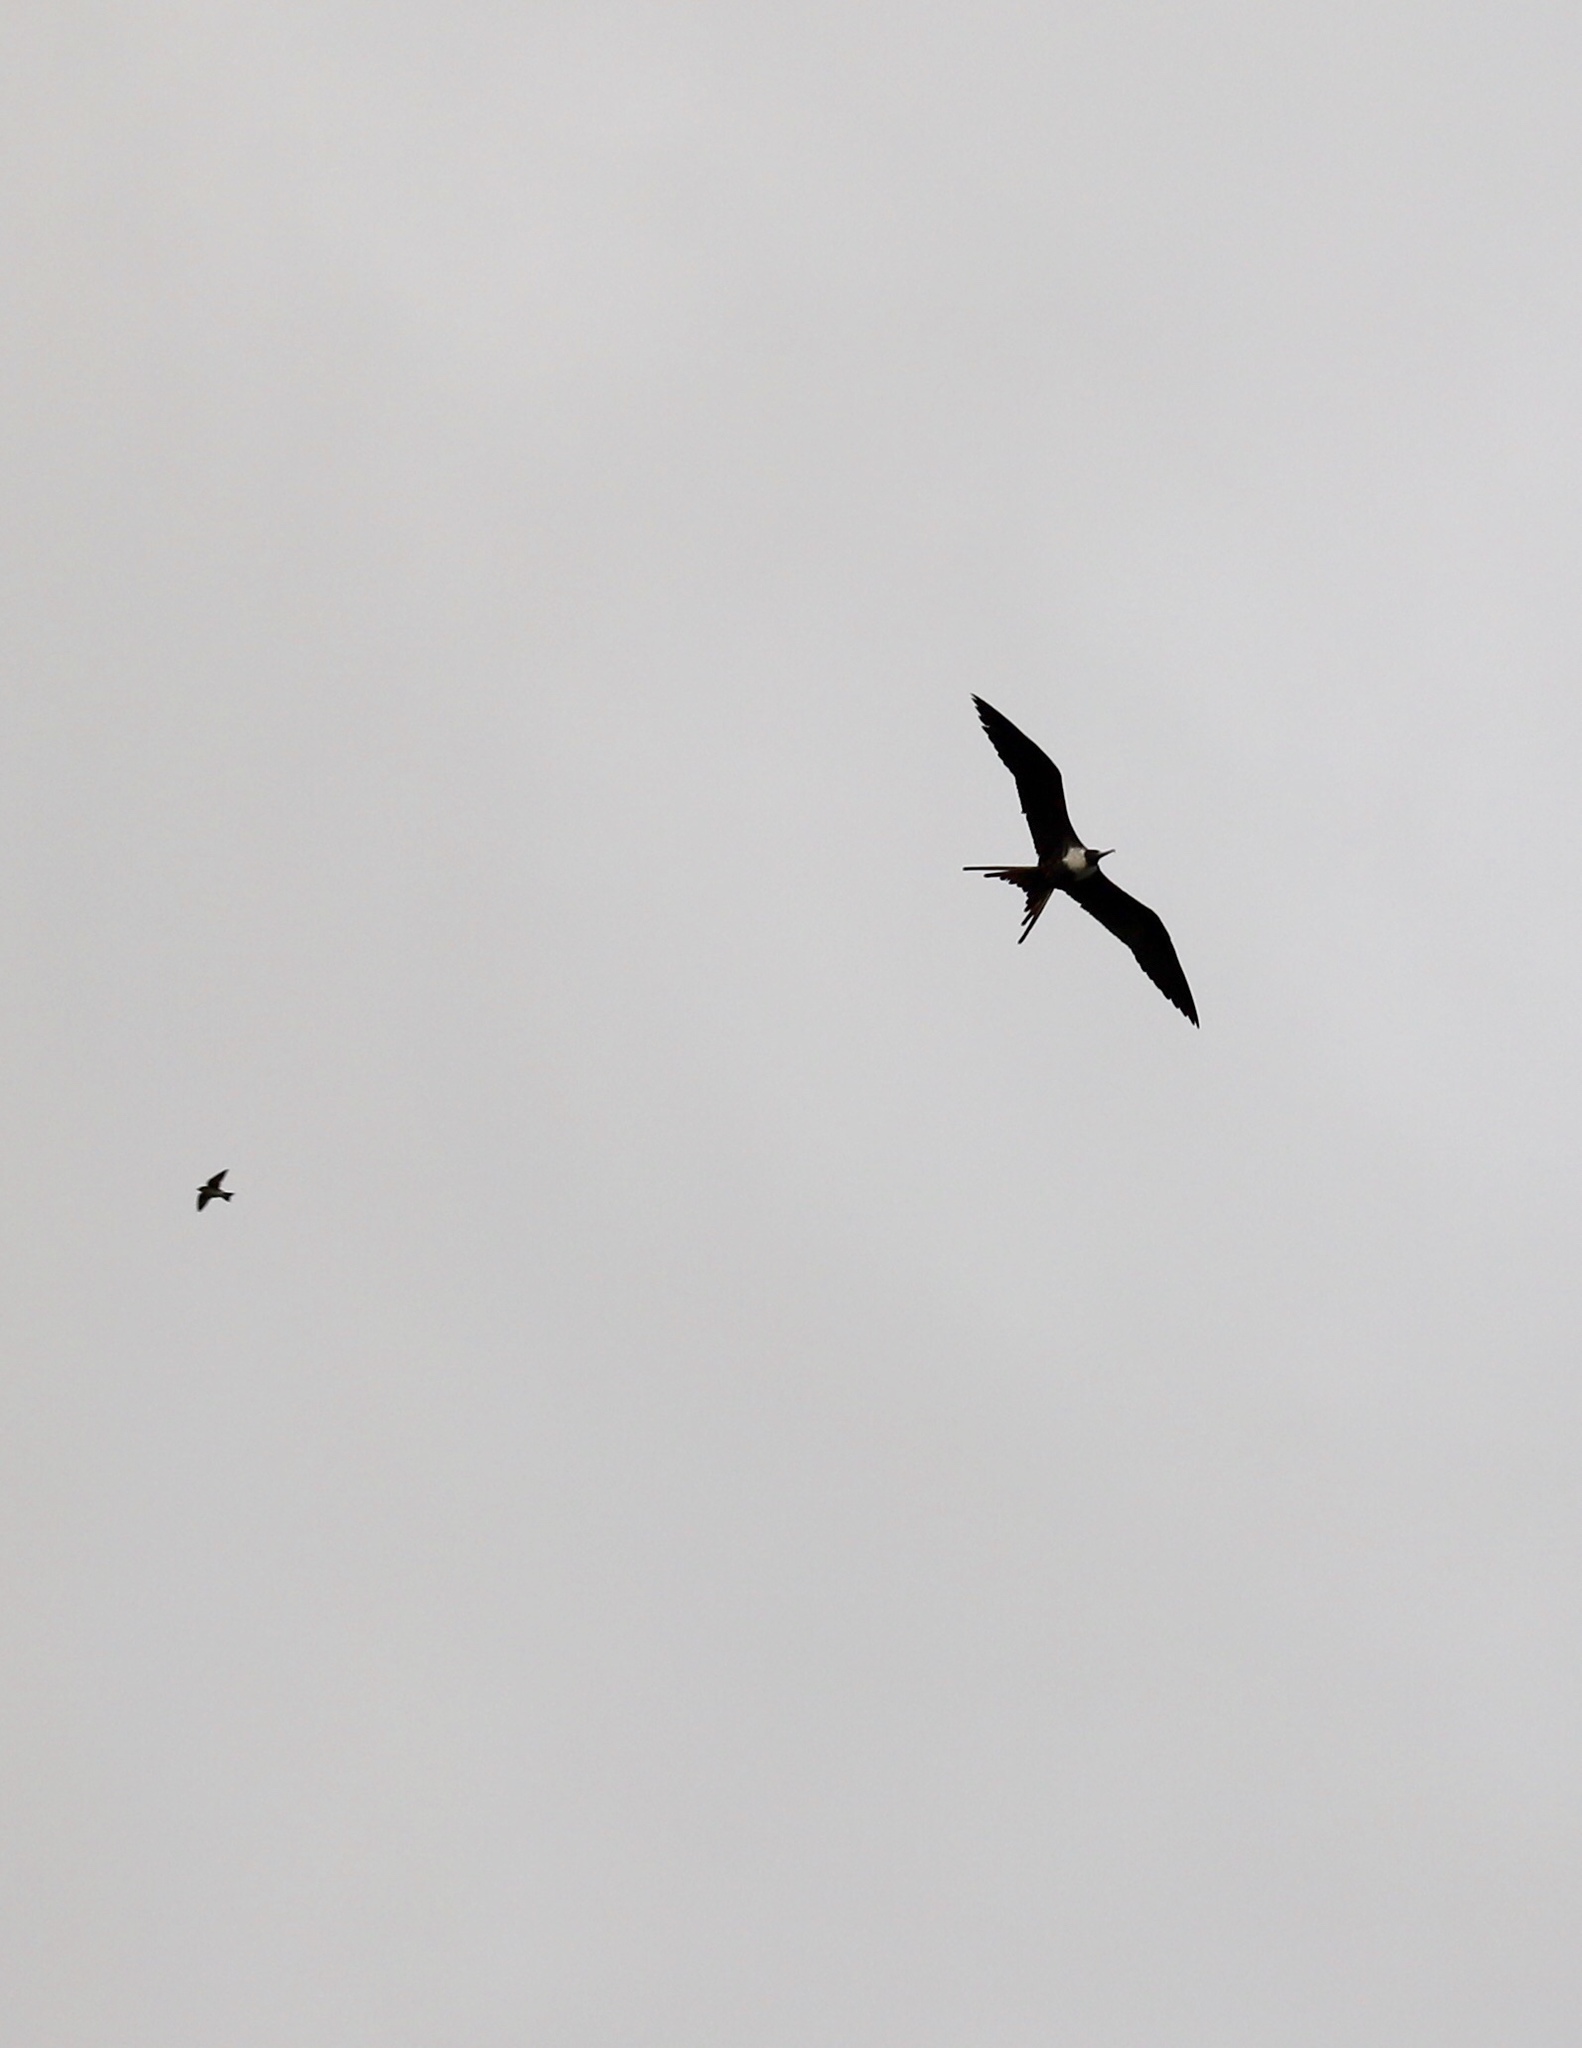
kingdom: Animalia
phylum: Chordata
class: Aves
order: Suliformes
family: Fregatidae
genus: Fregata
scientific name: Fregata magnificens
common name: Magnificent frigatebird
